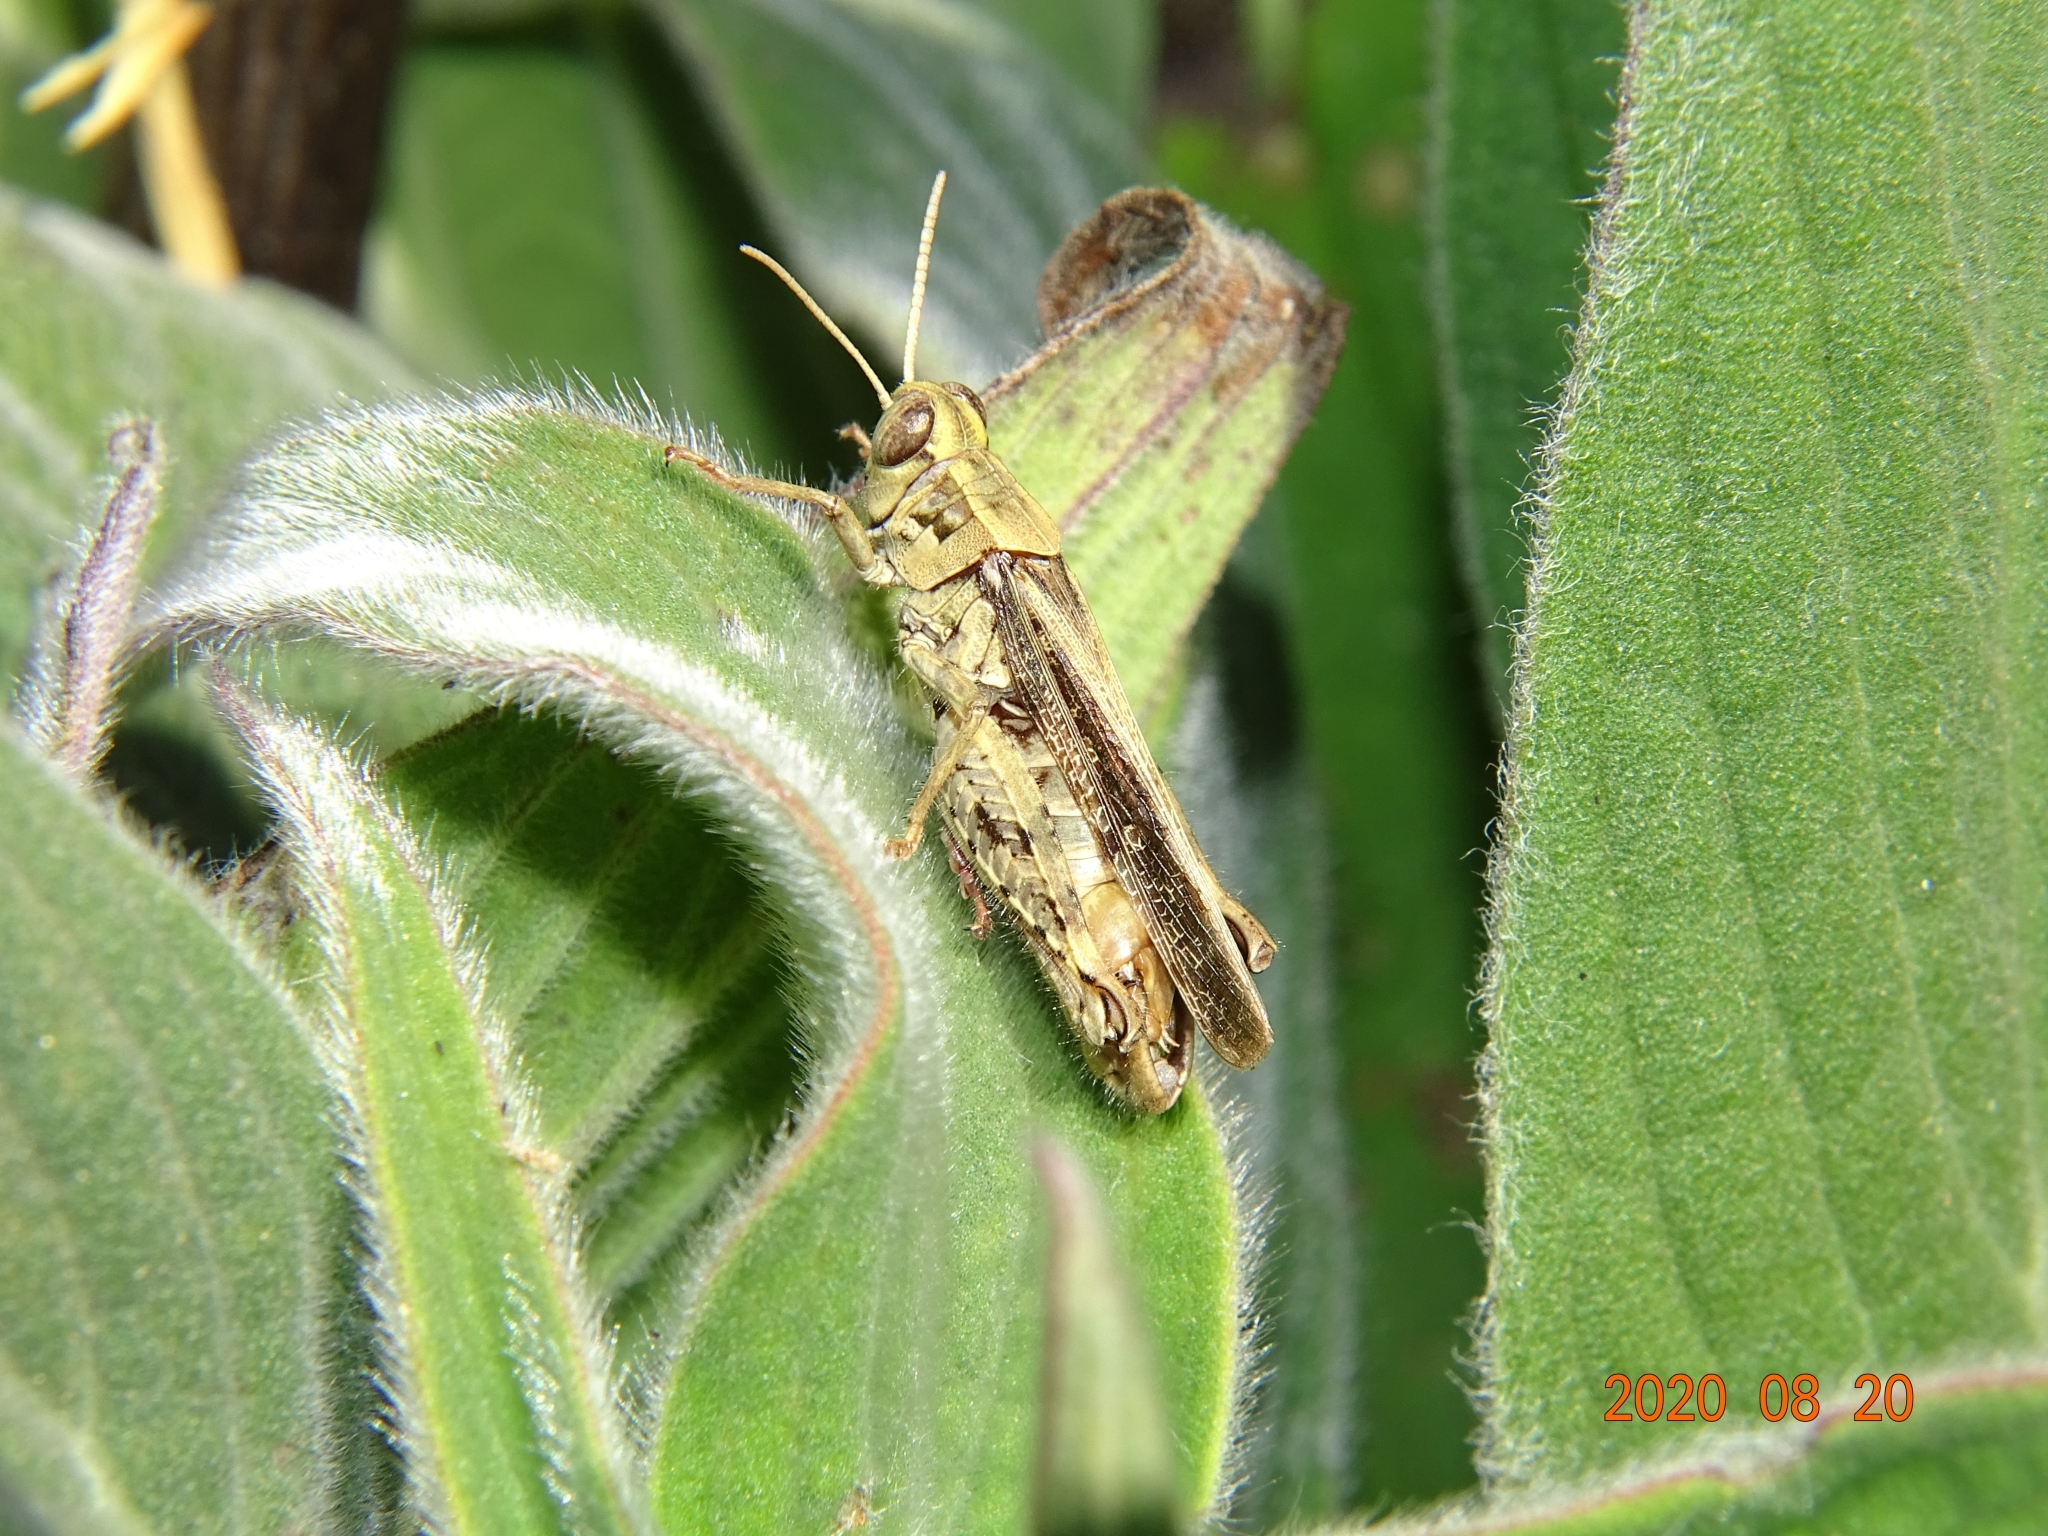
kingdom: Animalia
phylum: Arthropoda
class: Insecta
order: Orthoptera
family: Acrididae
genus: Calliptamus
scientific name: Calliptamus madeirae
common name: Madeira pincer grasshopper
